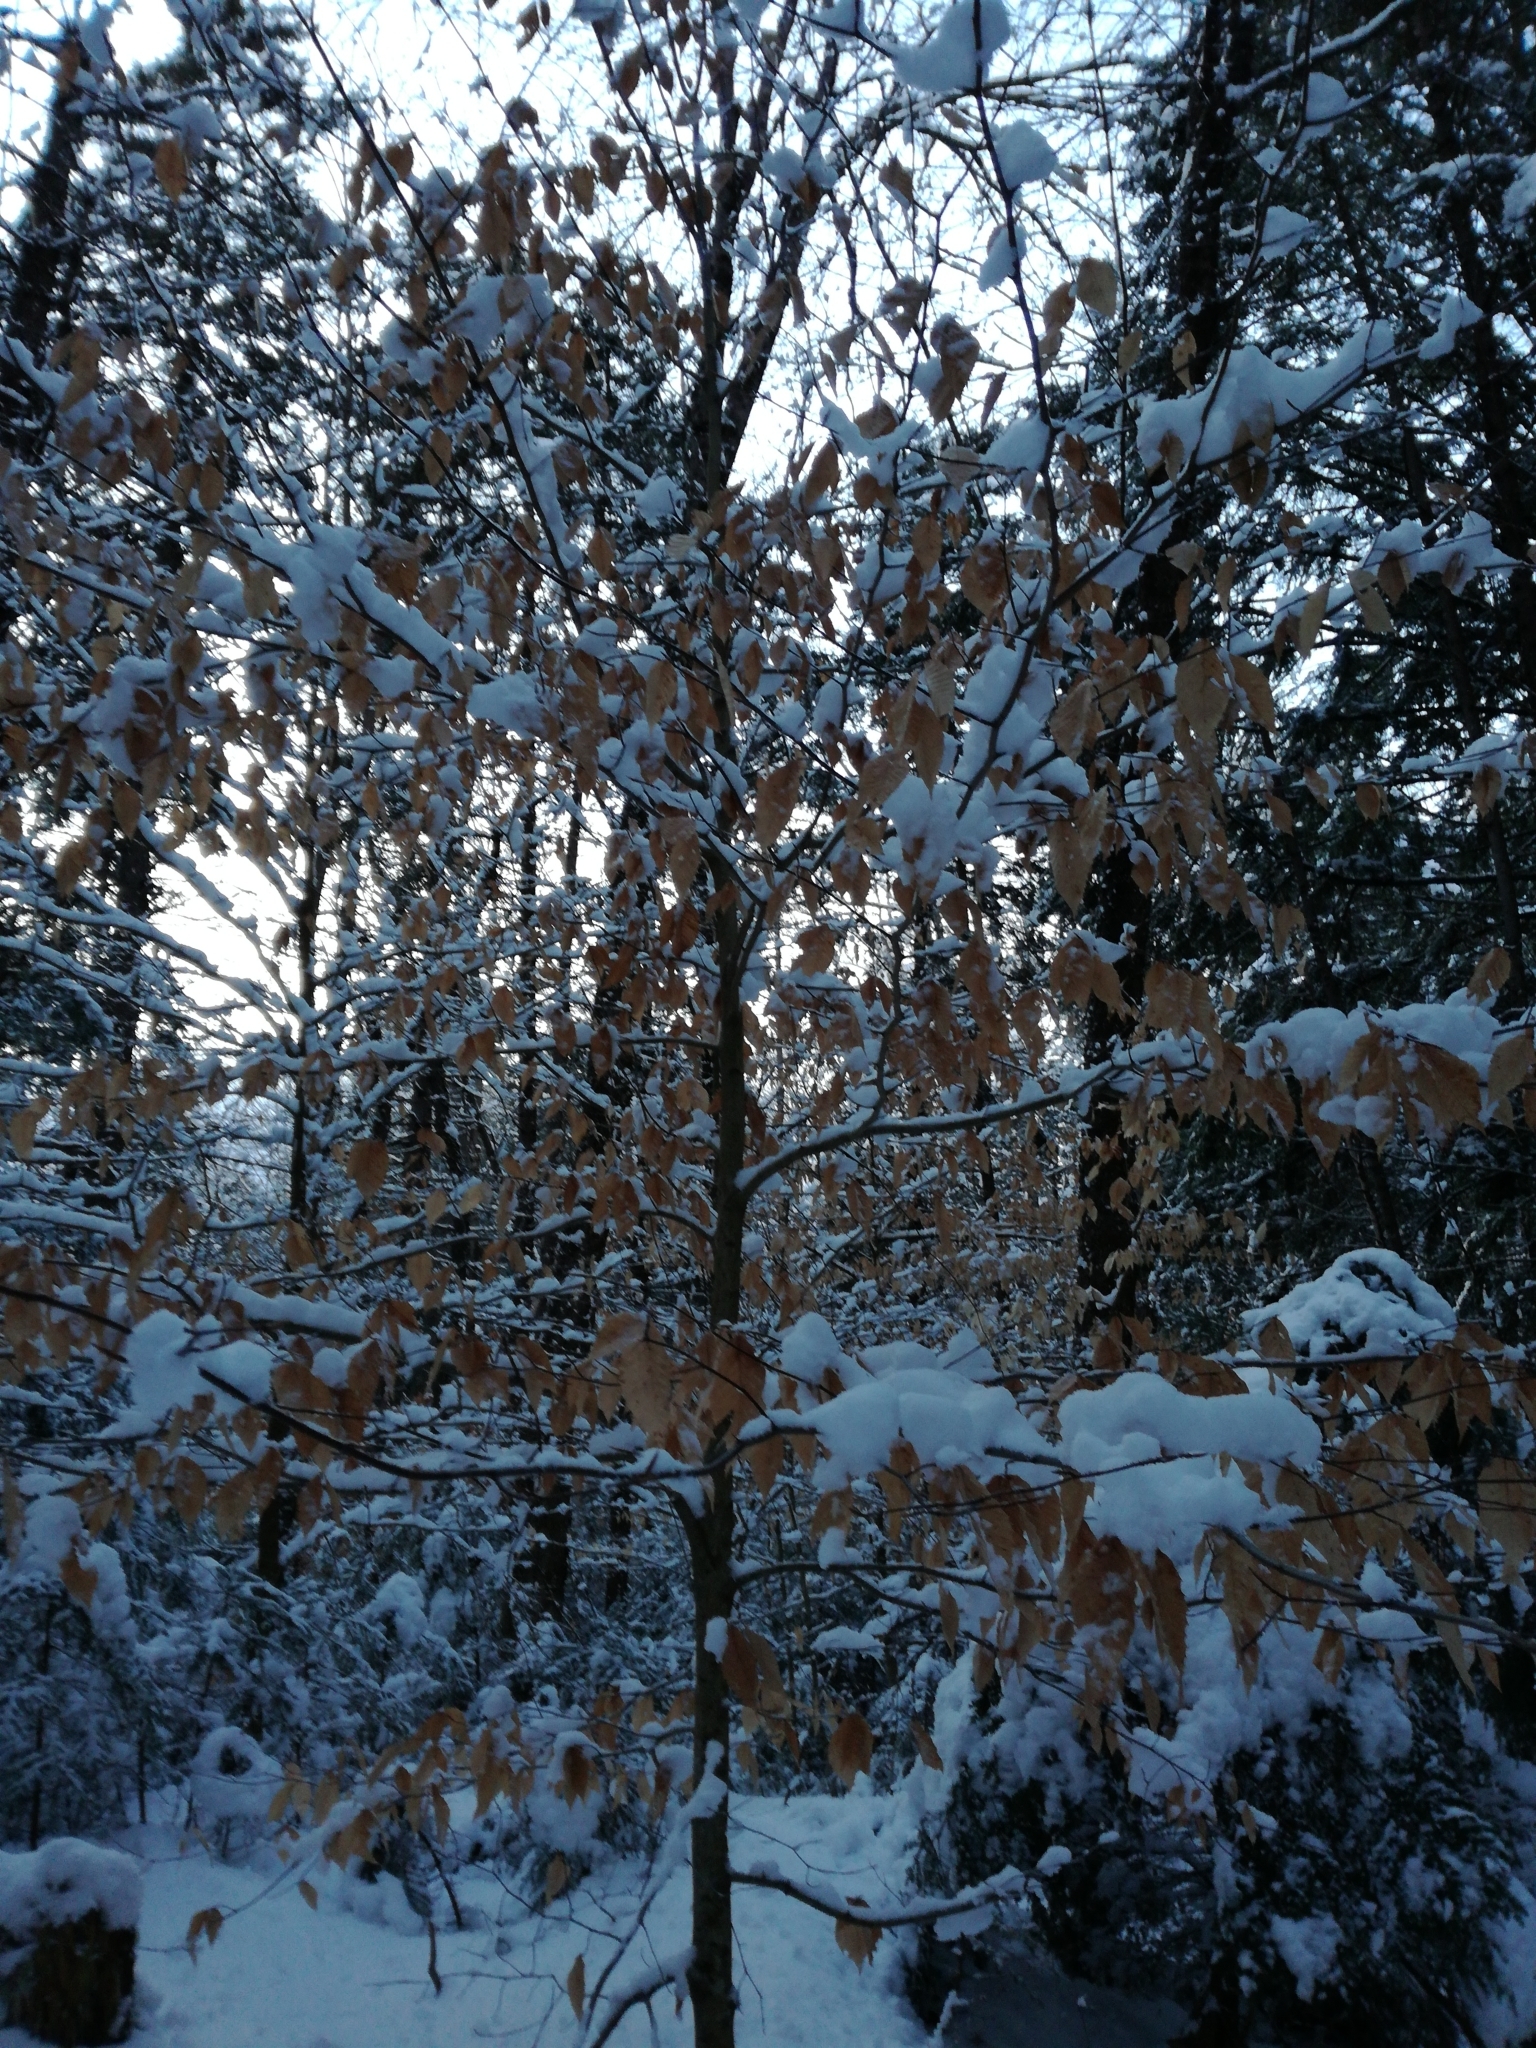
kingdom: Plantae
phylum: Tracheophyta
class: Magnoliopsida
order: Fagales
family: Fagaceae
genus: Fagus
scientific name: Fagus grandifolia
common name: American beech
